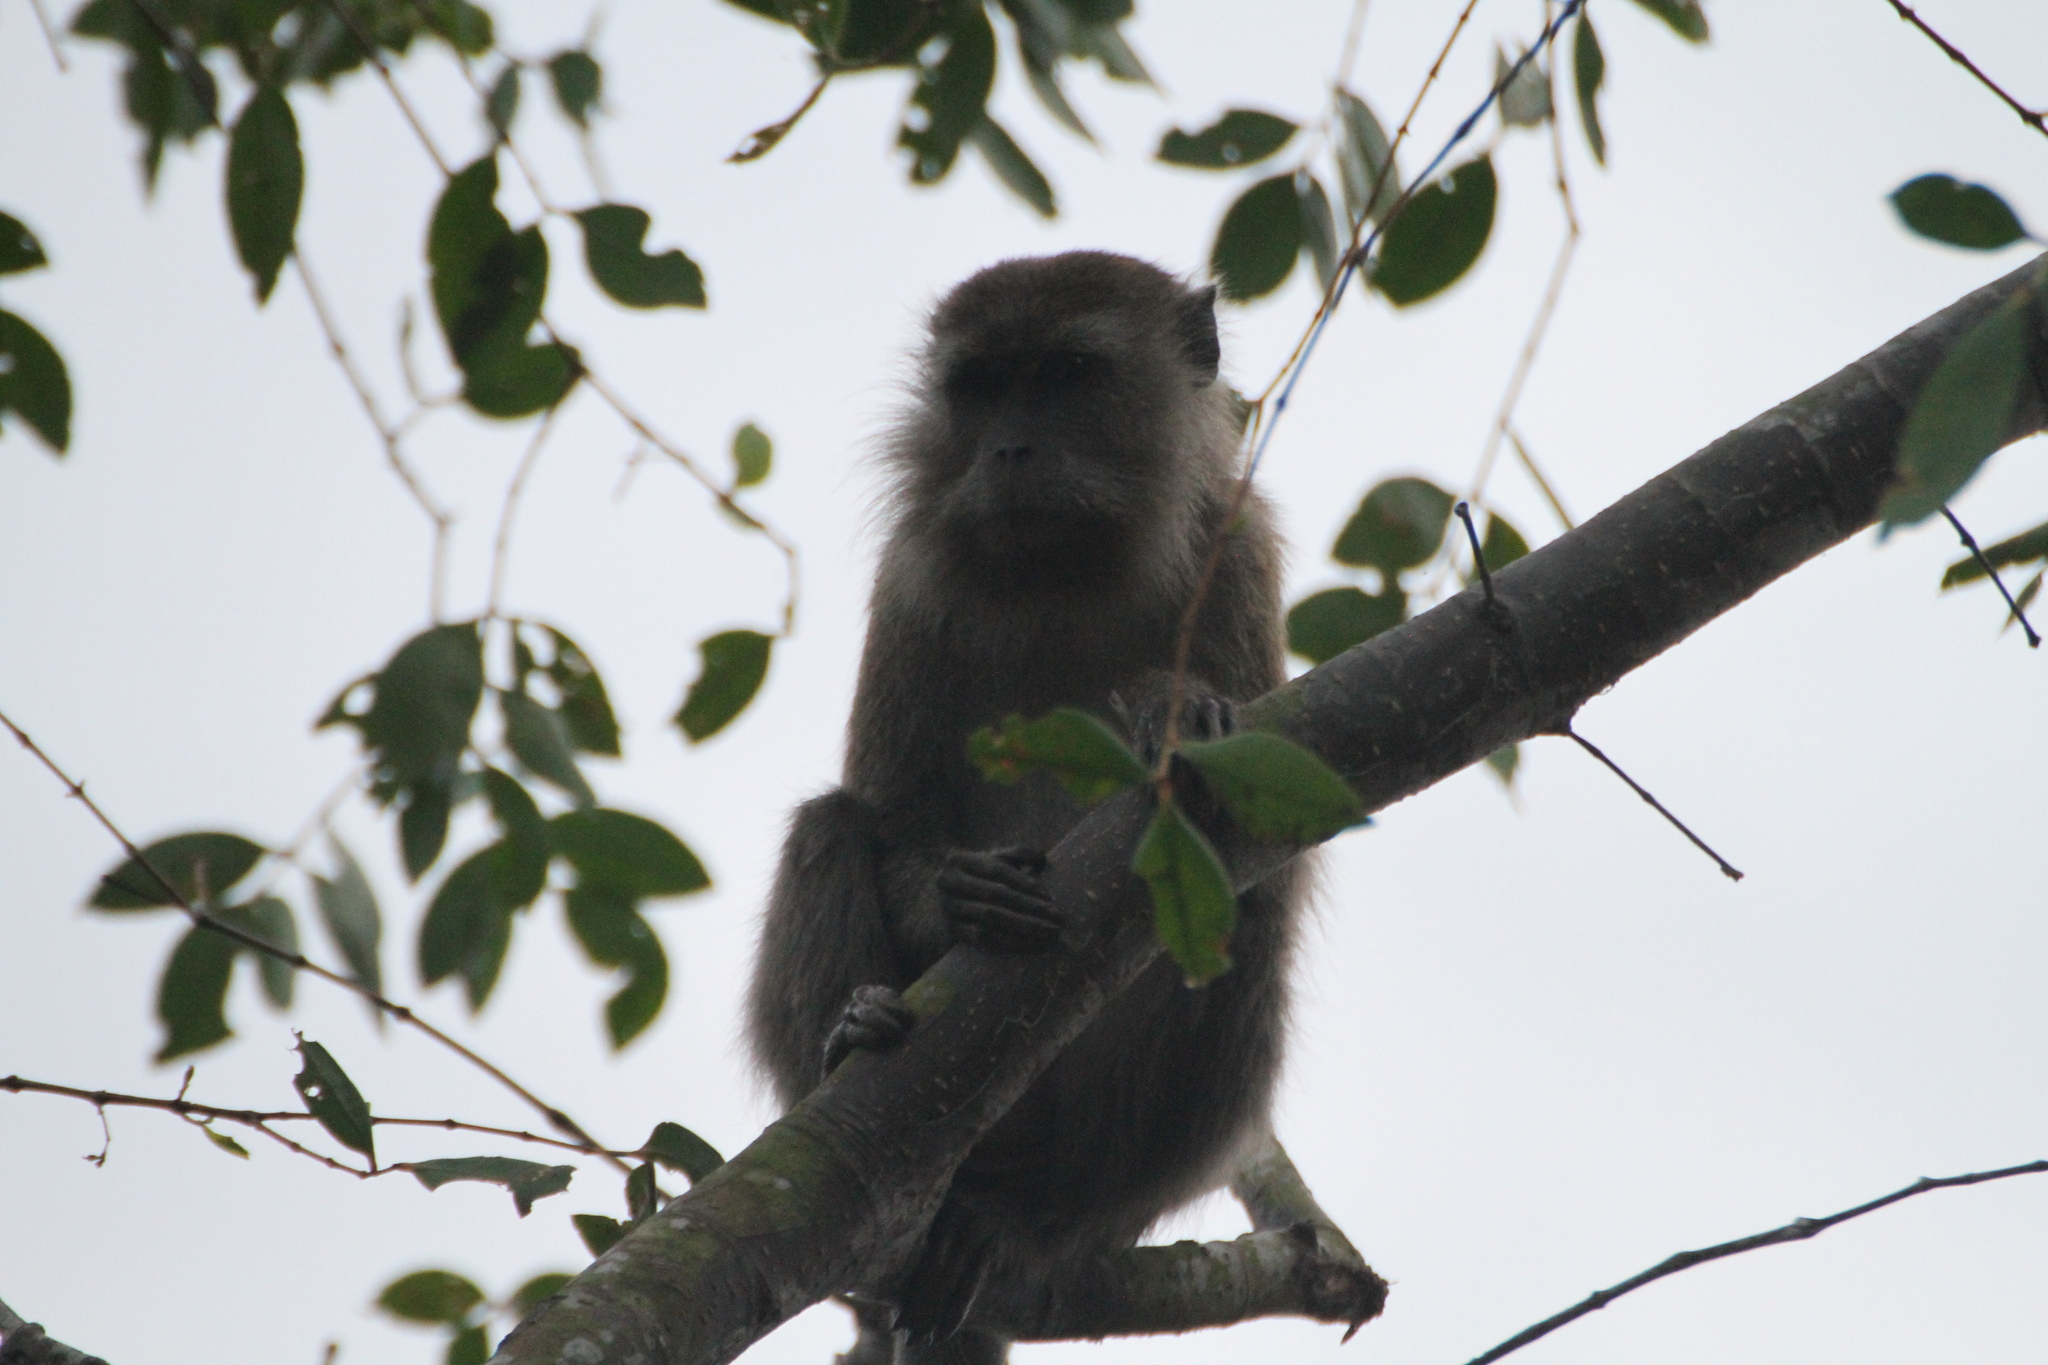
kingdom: Animalia
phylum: Chordata
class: Mammalia
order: Primates
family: Cercopithecidae
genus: Macaca
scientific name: Macaca fascicularis
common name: Crab-eating macaque
